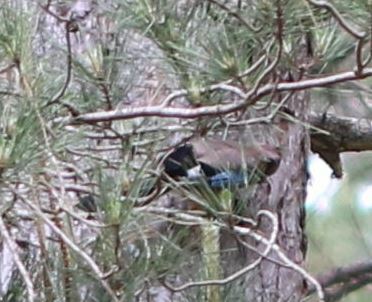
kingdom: Animalia
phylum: Chordata
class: Aves
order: Passeriformes
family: Corvidae
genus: Garrulus
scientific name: Garrulus glandarius
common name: Eurasian jay
